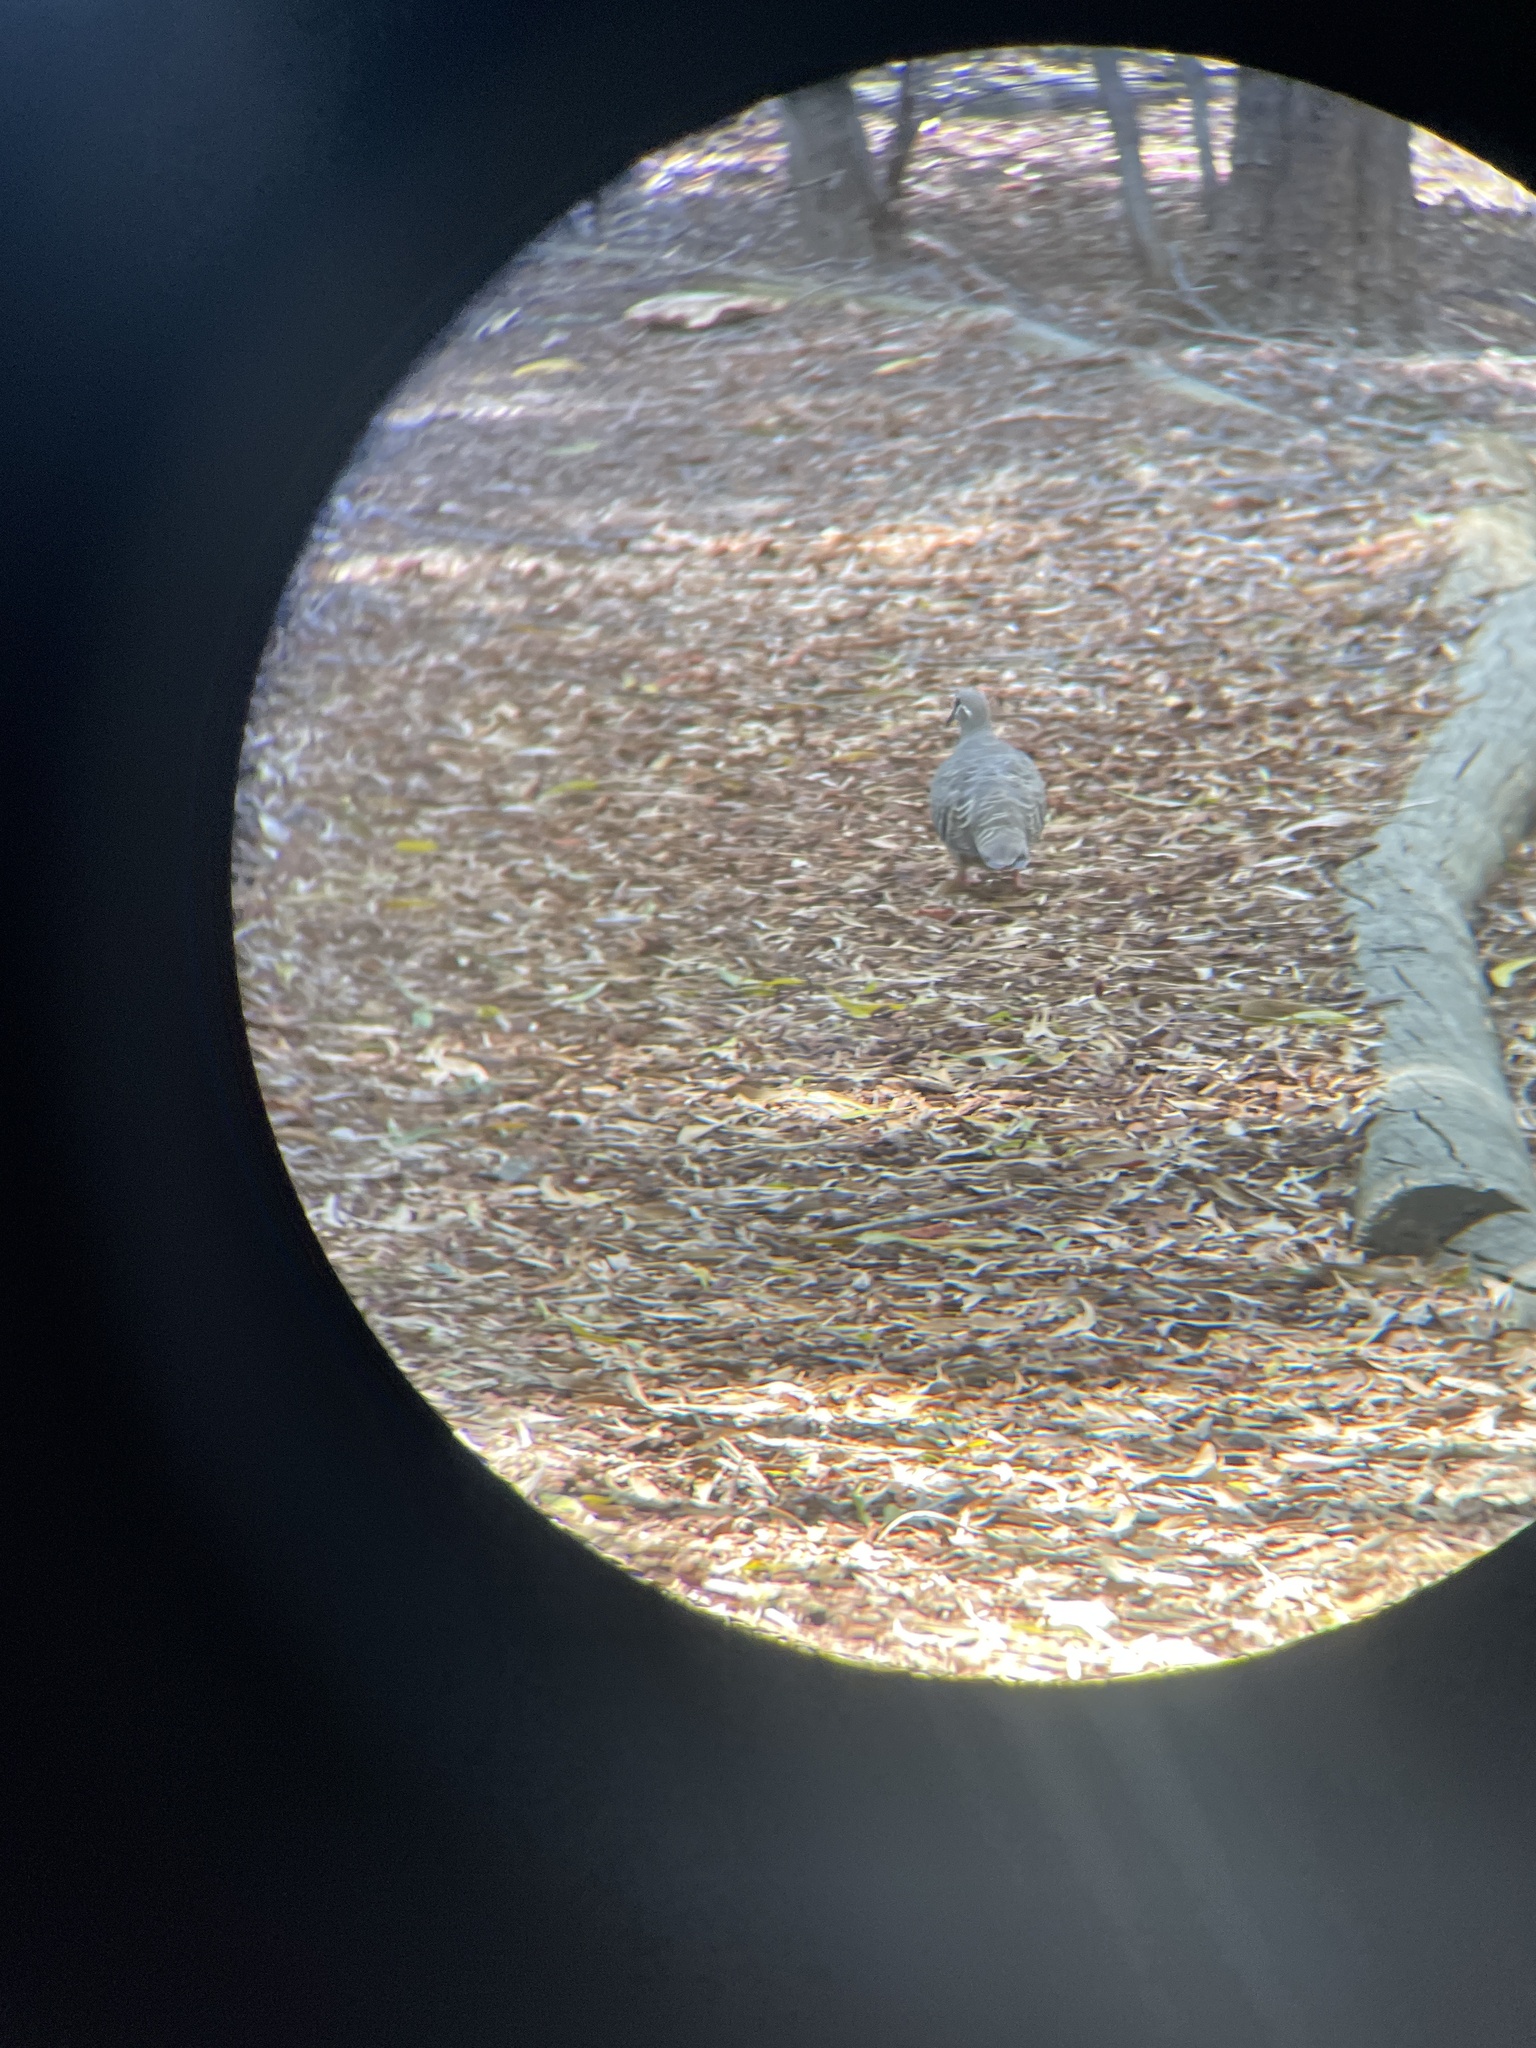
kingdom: Animalia
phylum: Chordata
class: Aves
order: Columbiformes
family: Columbidae
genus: Phaps
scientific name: Phaps chalcoptera
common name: Common bronzewing
